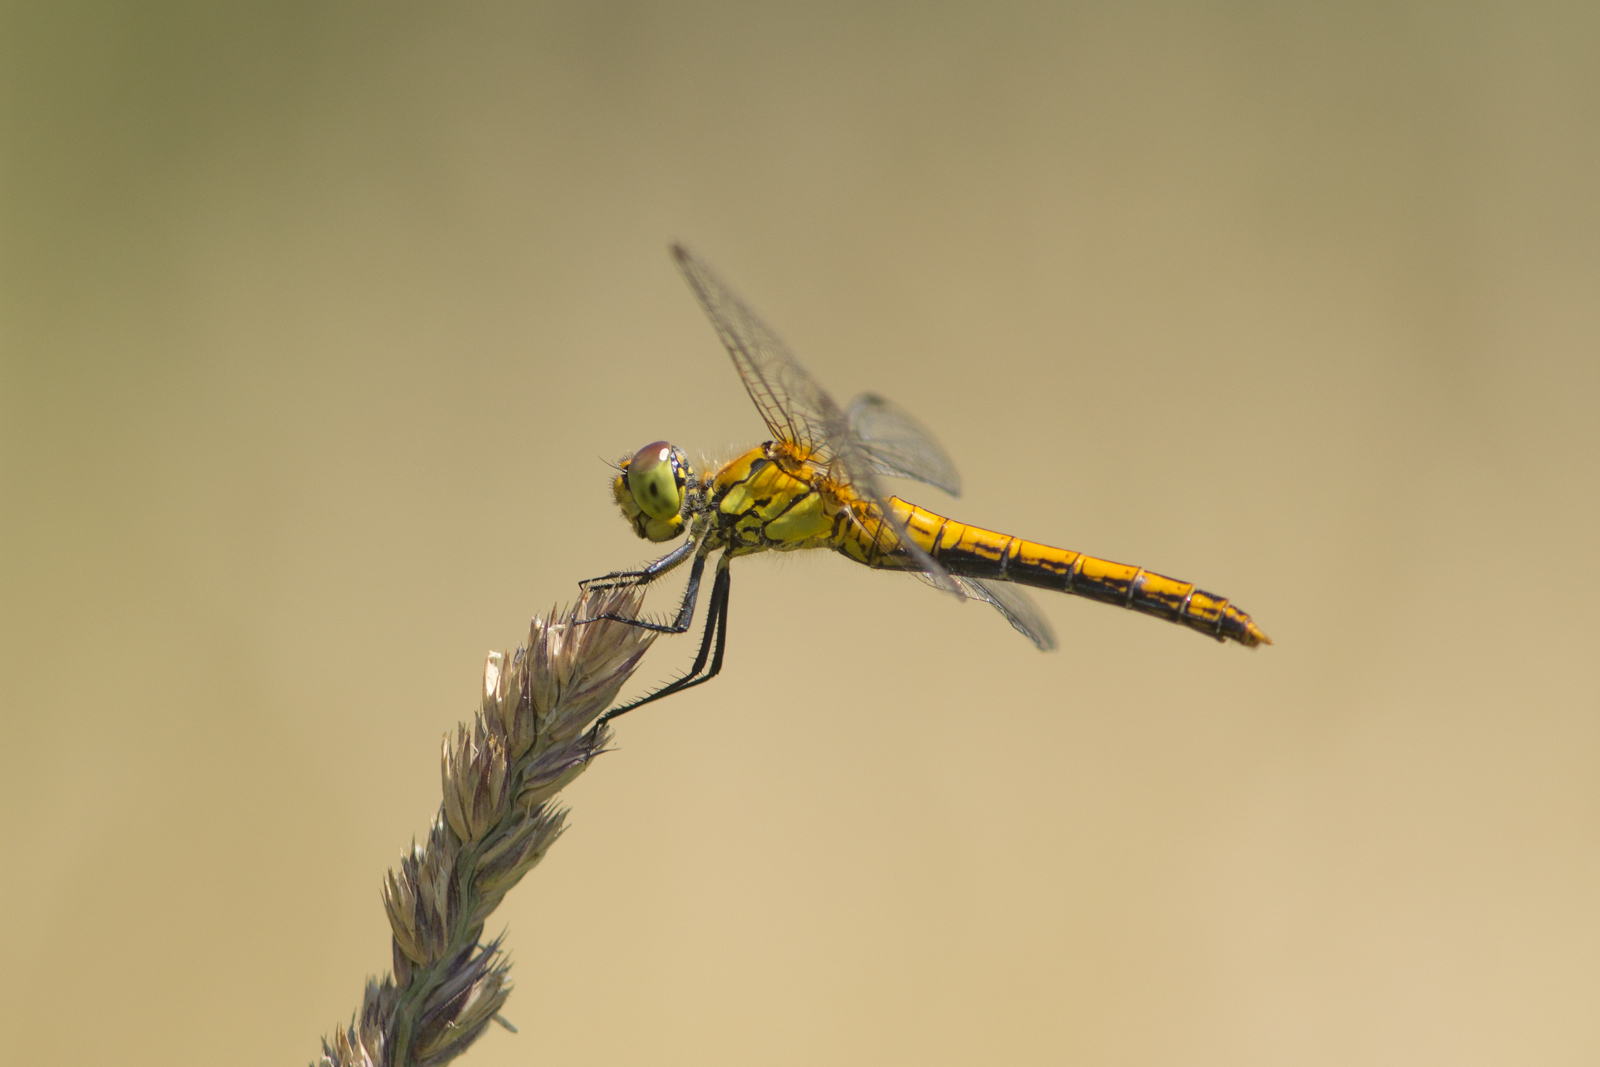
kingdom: Animalia
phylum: Arthropoda
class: Insecta
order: Odonata
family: Libellulidae
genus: Sympetrum
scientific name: Sympetrum sanguineum
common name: Ruddy darter
